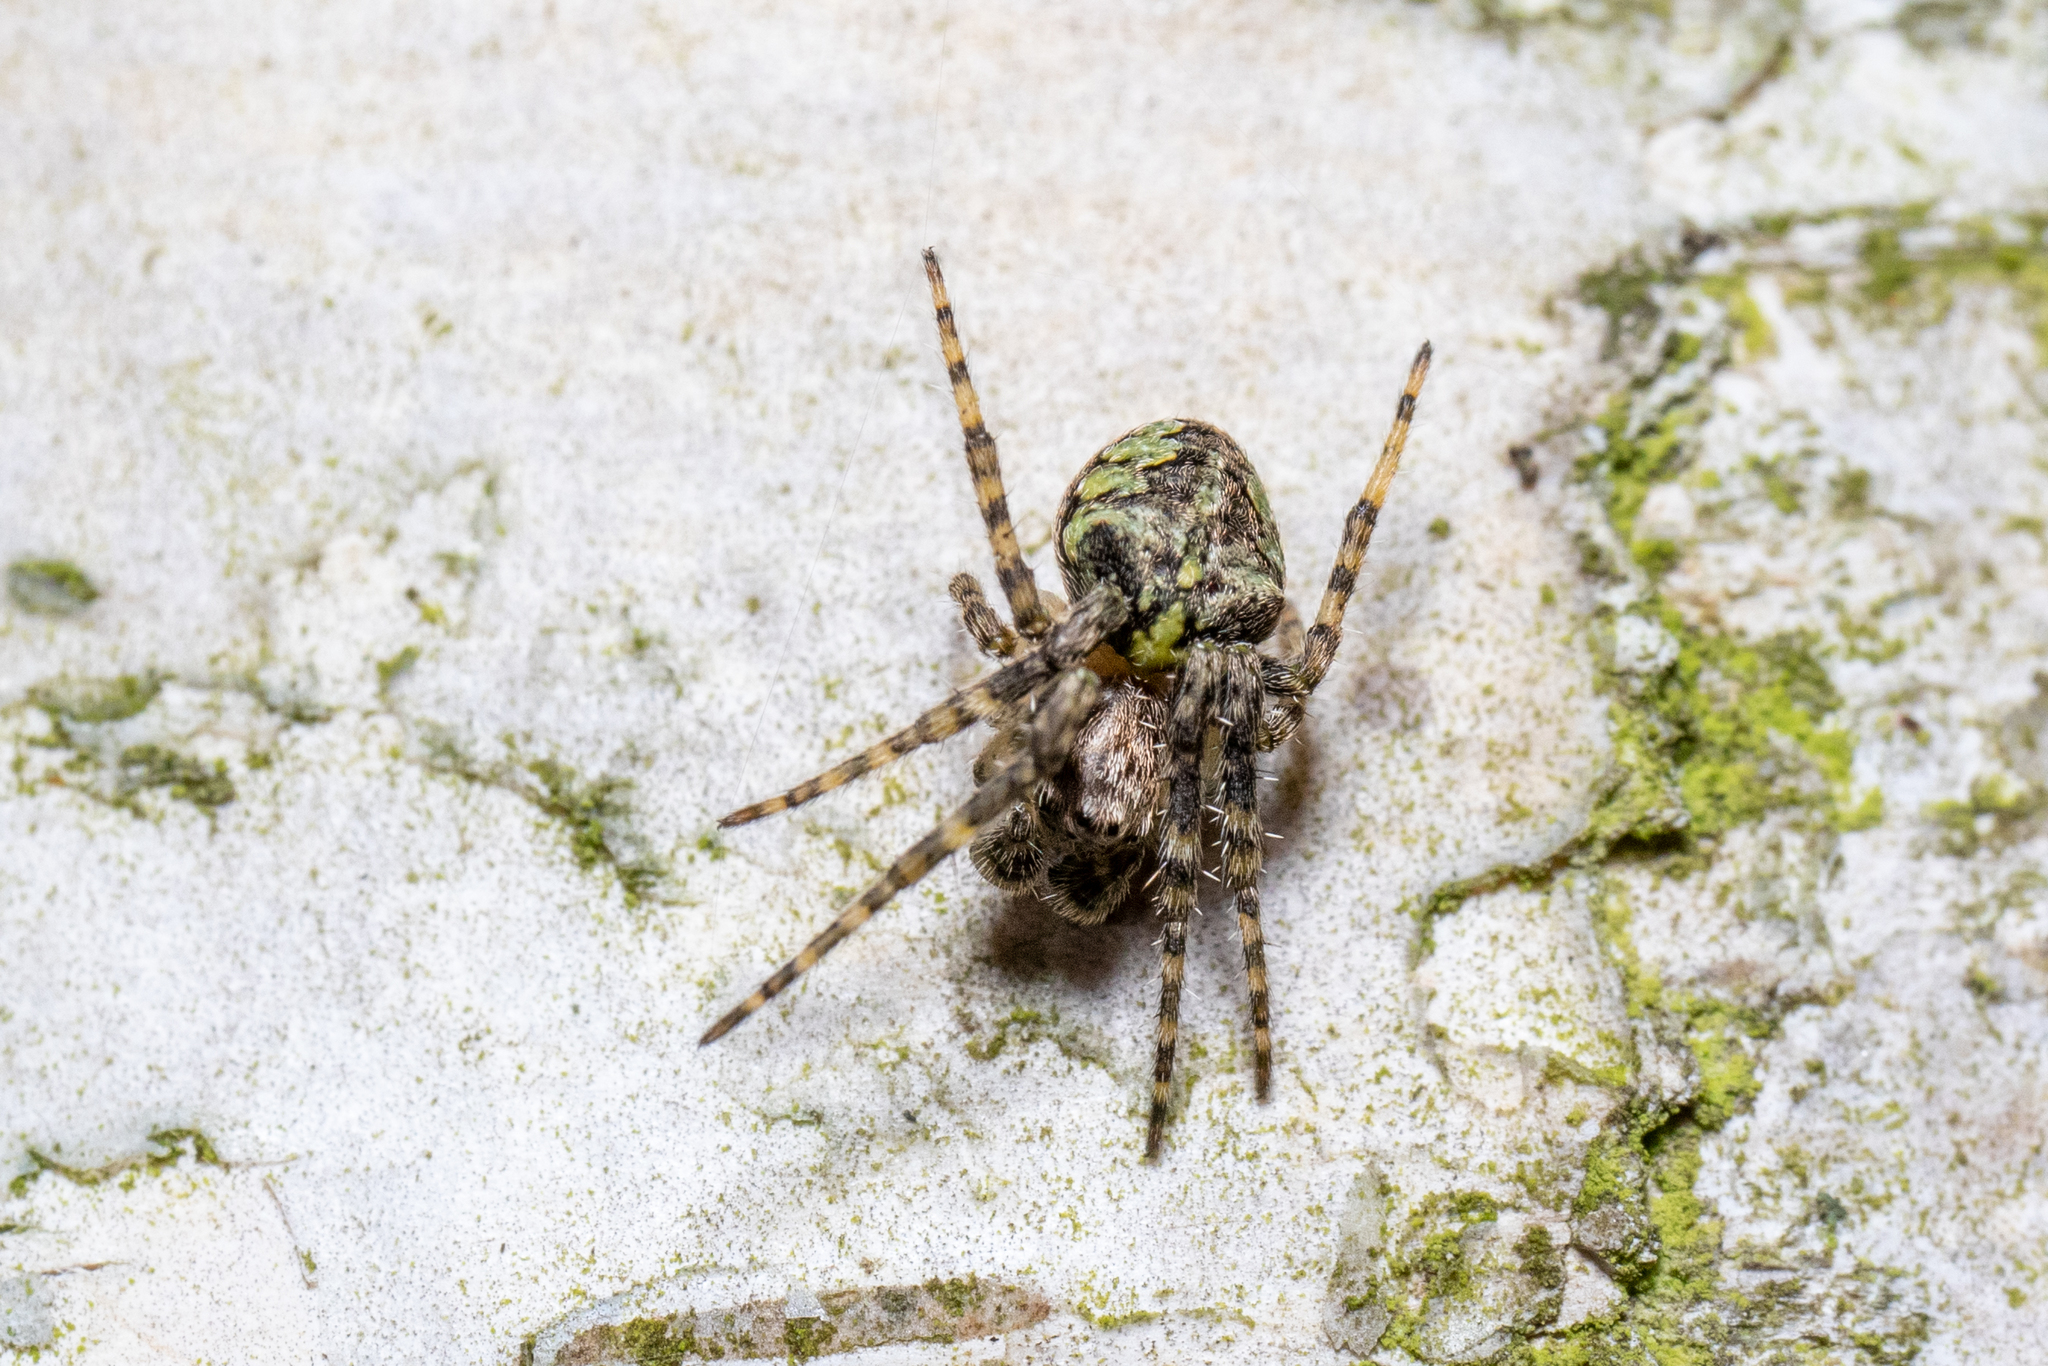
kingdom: Animalia
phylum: Arthropoda
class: Arachnida
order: Araneae
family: Araneidae
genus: Gibbaranea
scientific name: Gibbaranea gibbosa
